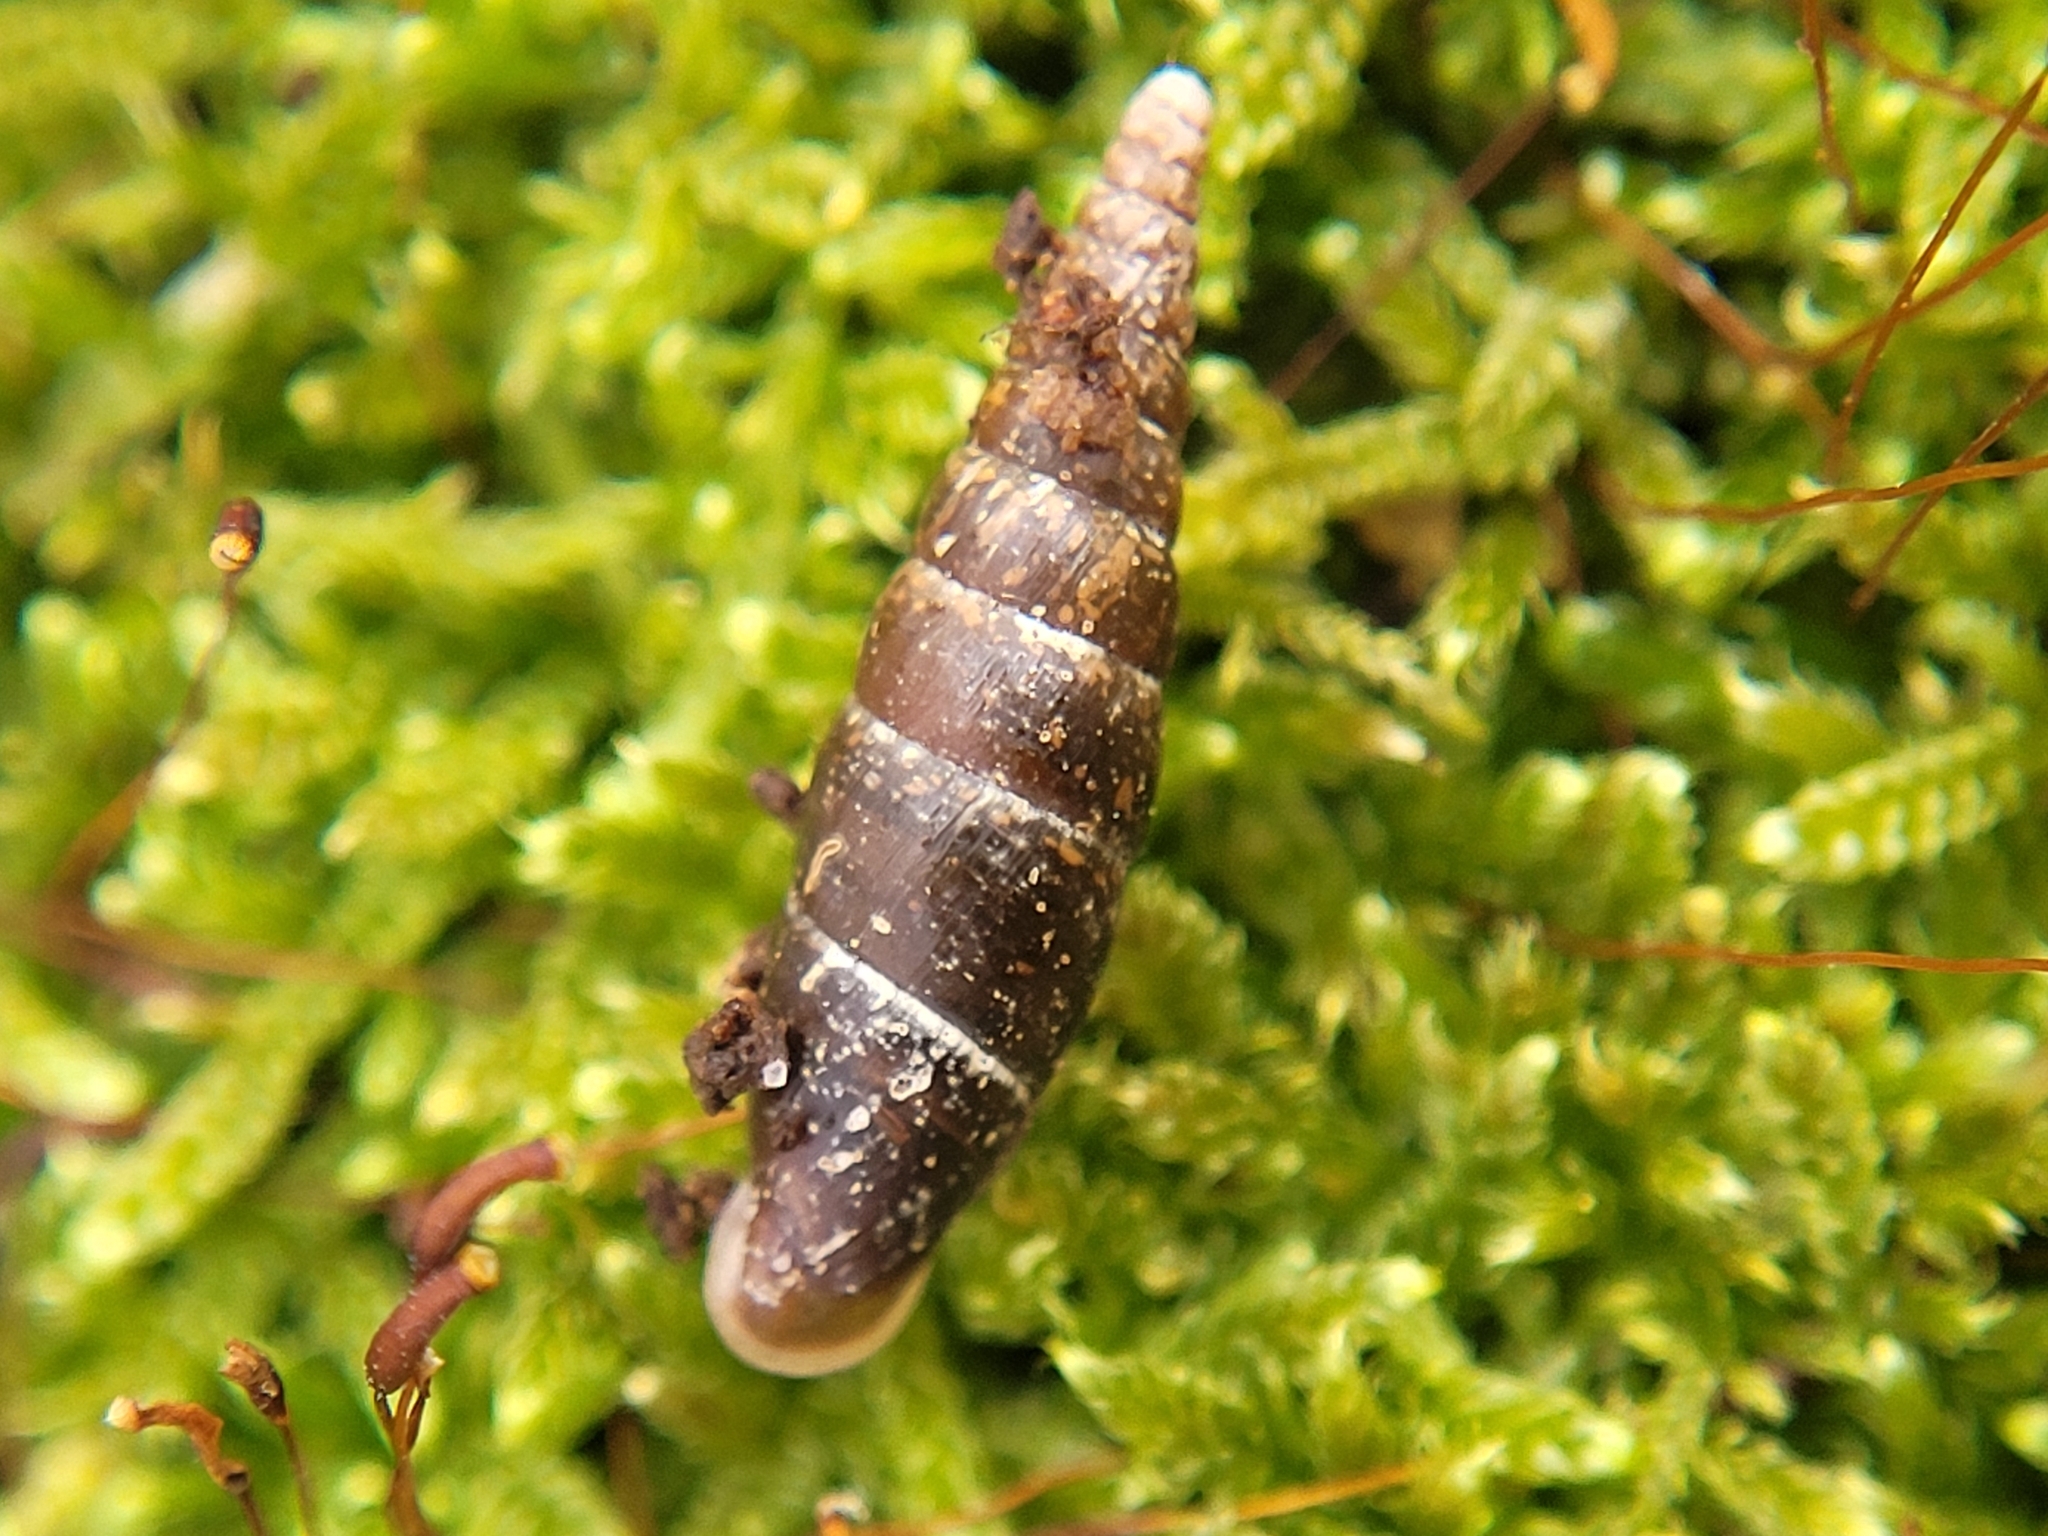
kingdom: Animalia
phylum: Mollusca
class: Gastropoda
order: Stylommatophora
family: Clausiliidae
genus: Cochlodina
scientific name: Cochlodina laminata
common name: Plaited door snail
